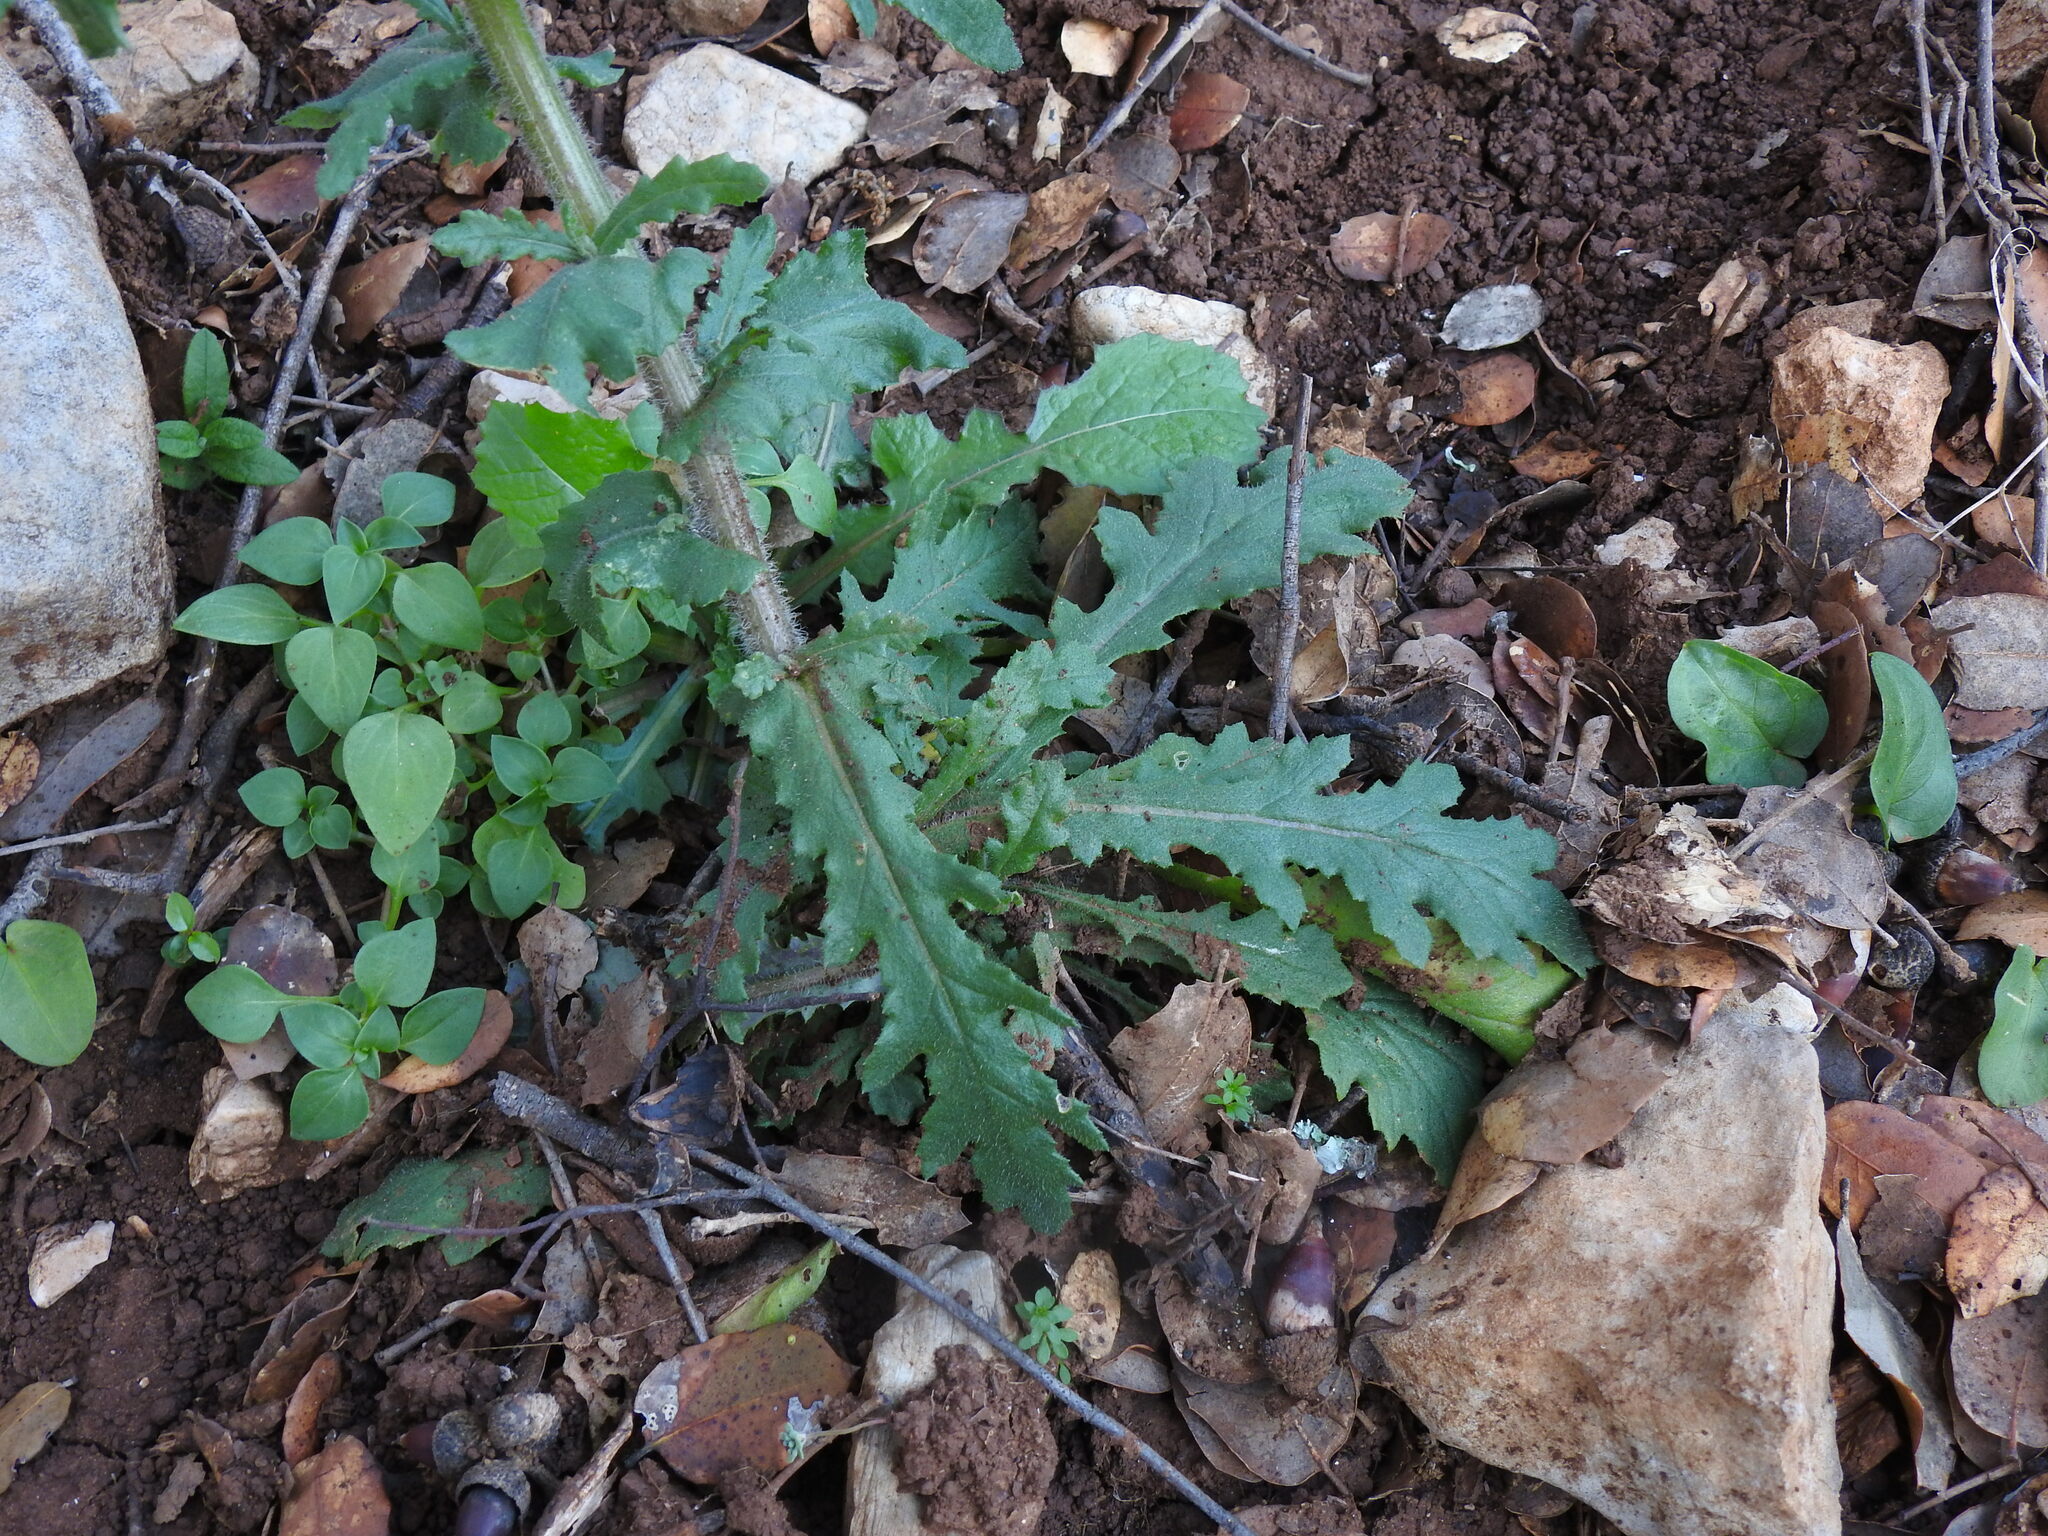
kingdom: Plantae
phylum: Tracheophyta
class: Magnoliopsida
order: Asterales
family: Asteraceae
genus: Senecio
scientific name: Senecio lividus
